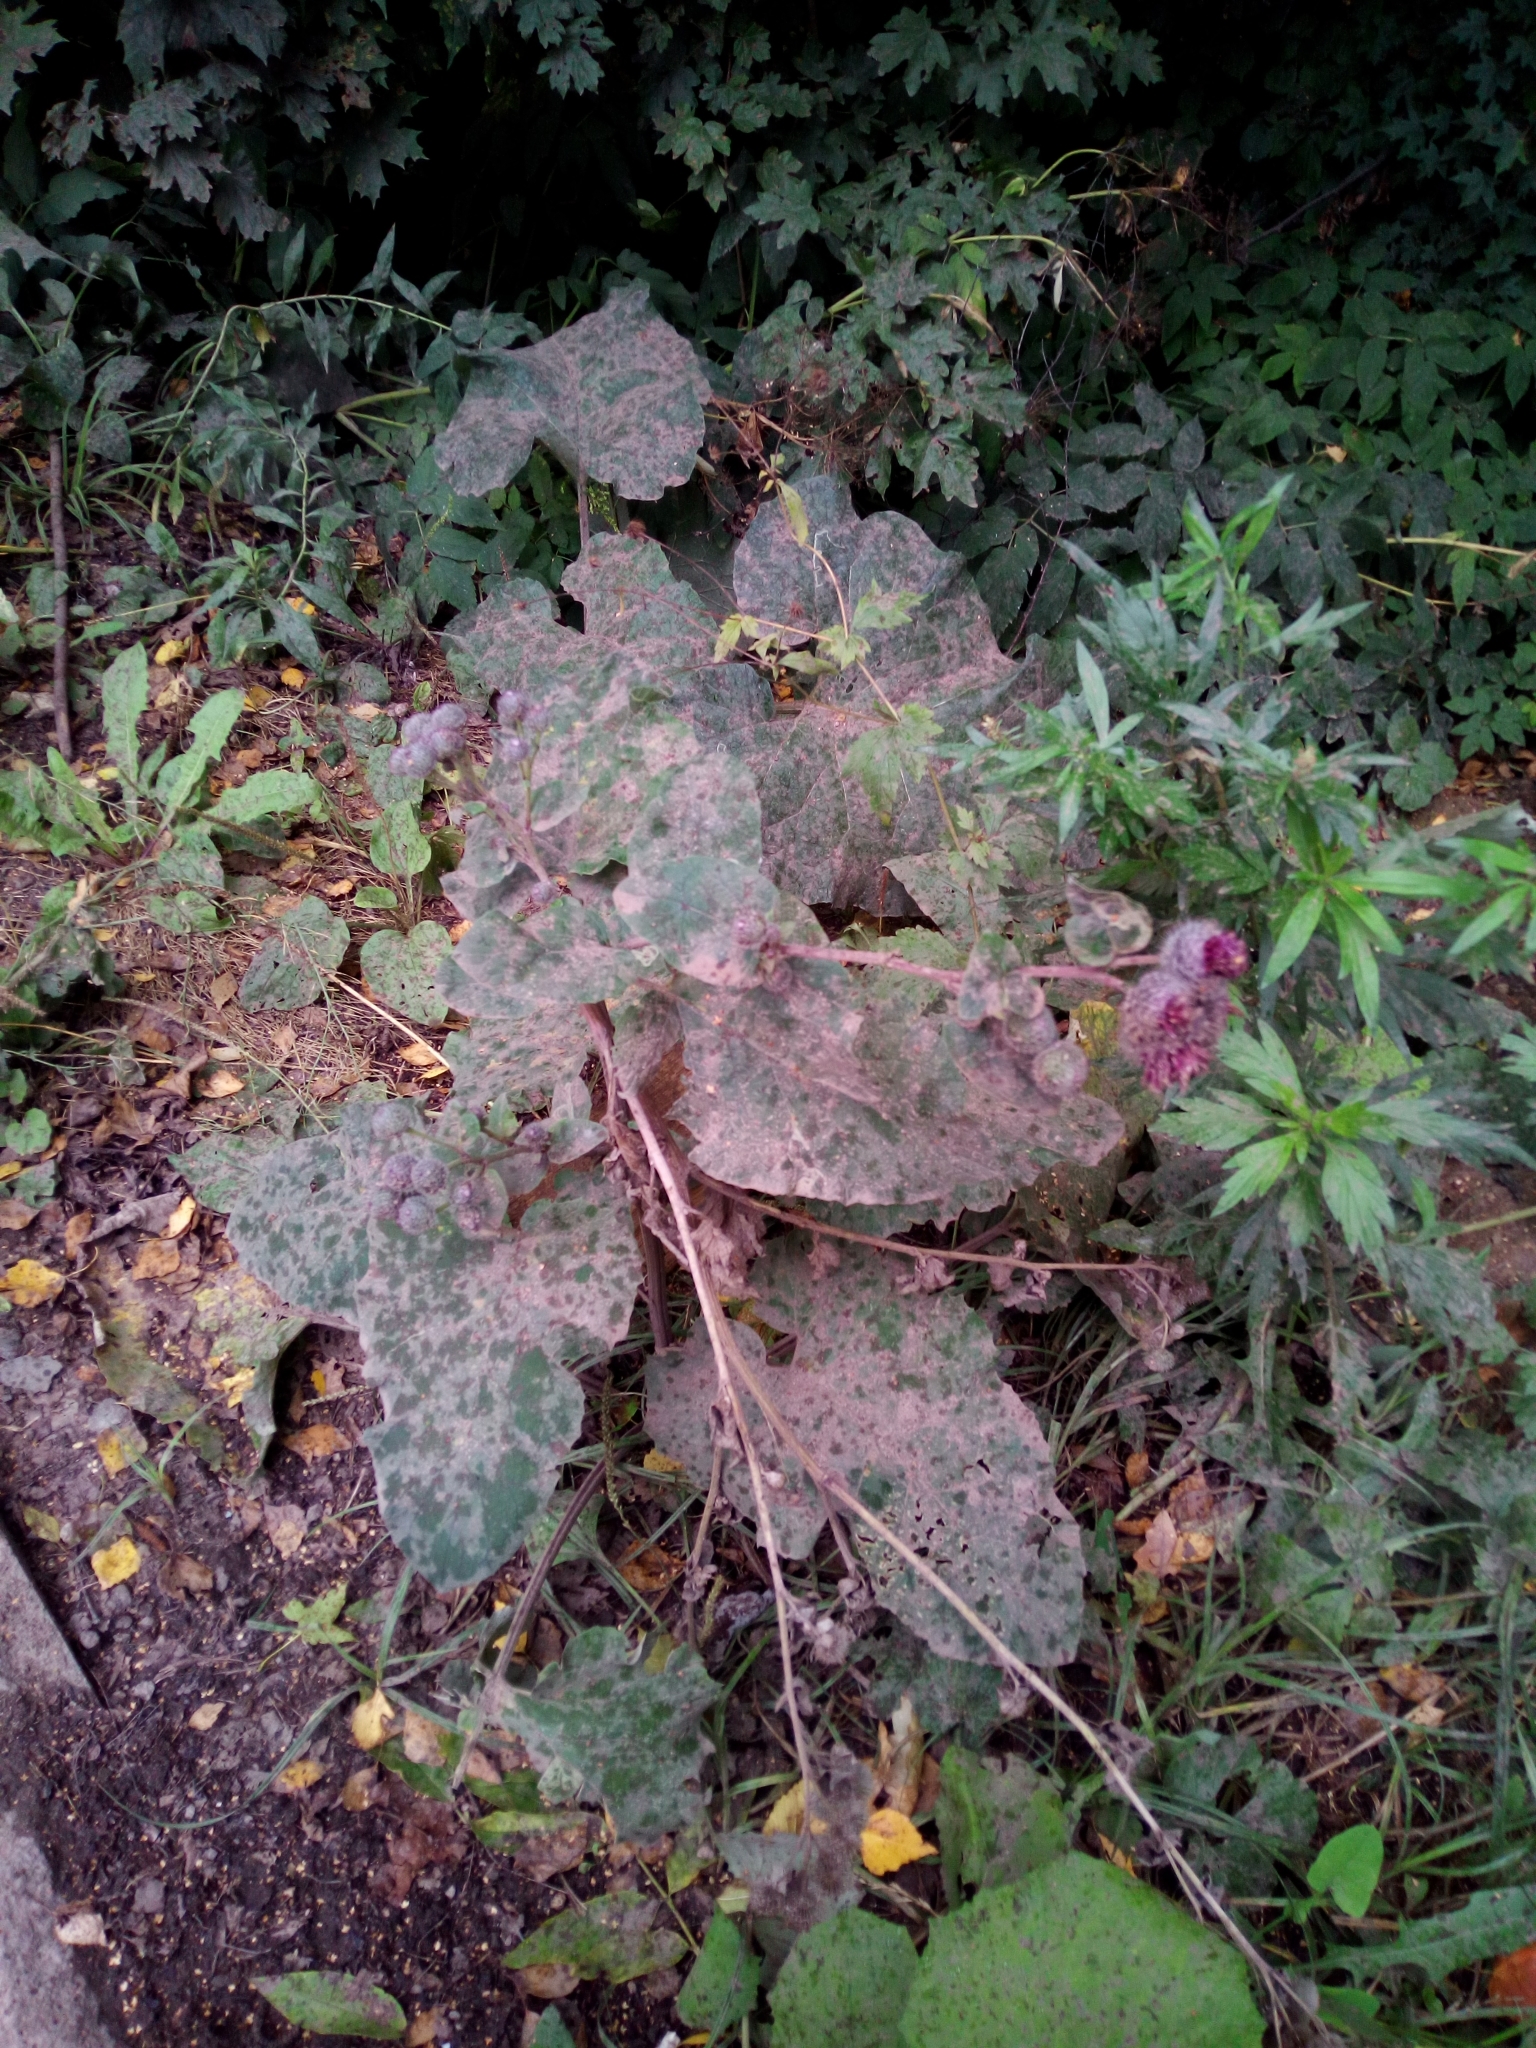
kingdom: Plantae
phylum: Tracheophyta
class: Magnoliopsida
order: Asterales
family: Asteraceae
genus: Arctium
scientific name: Arctium tomentosum
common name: Woolly burdock
